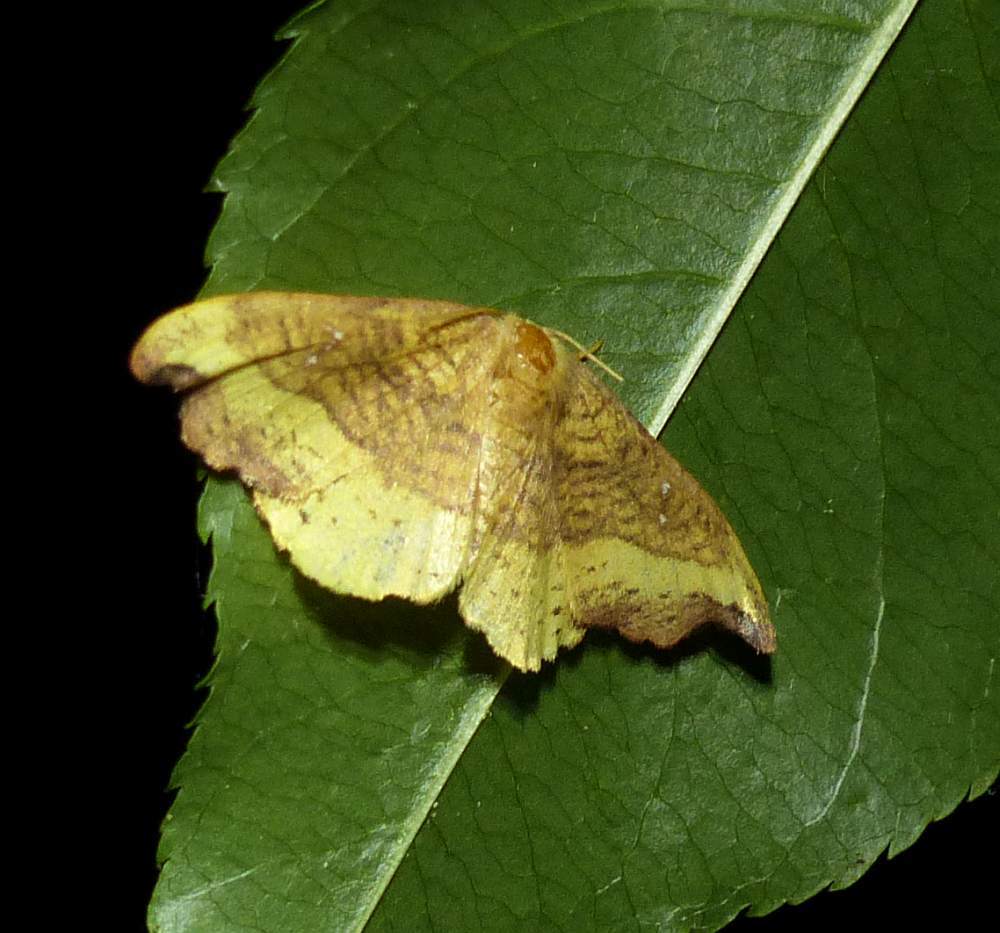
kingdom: Animalia
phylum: Arthropoda
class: Insecta
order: Lepidoptera
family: Drepanidae
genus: Oreta
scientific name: Oreta rosea
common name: Rose hooktip
